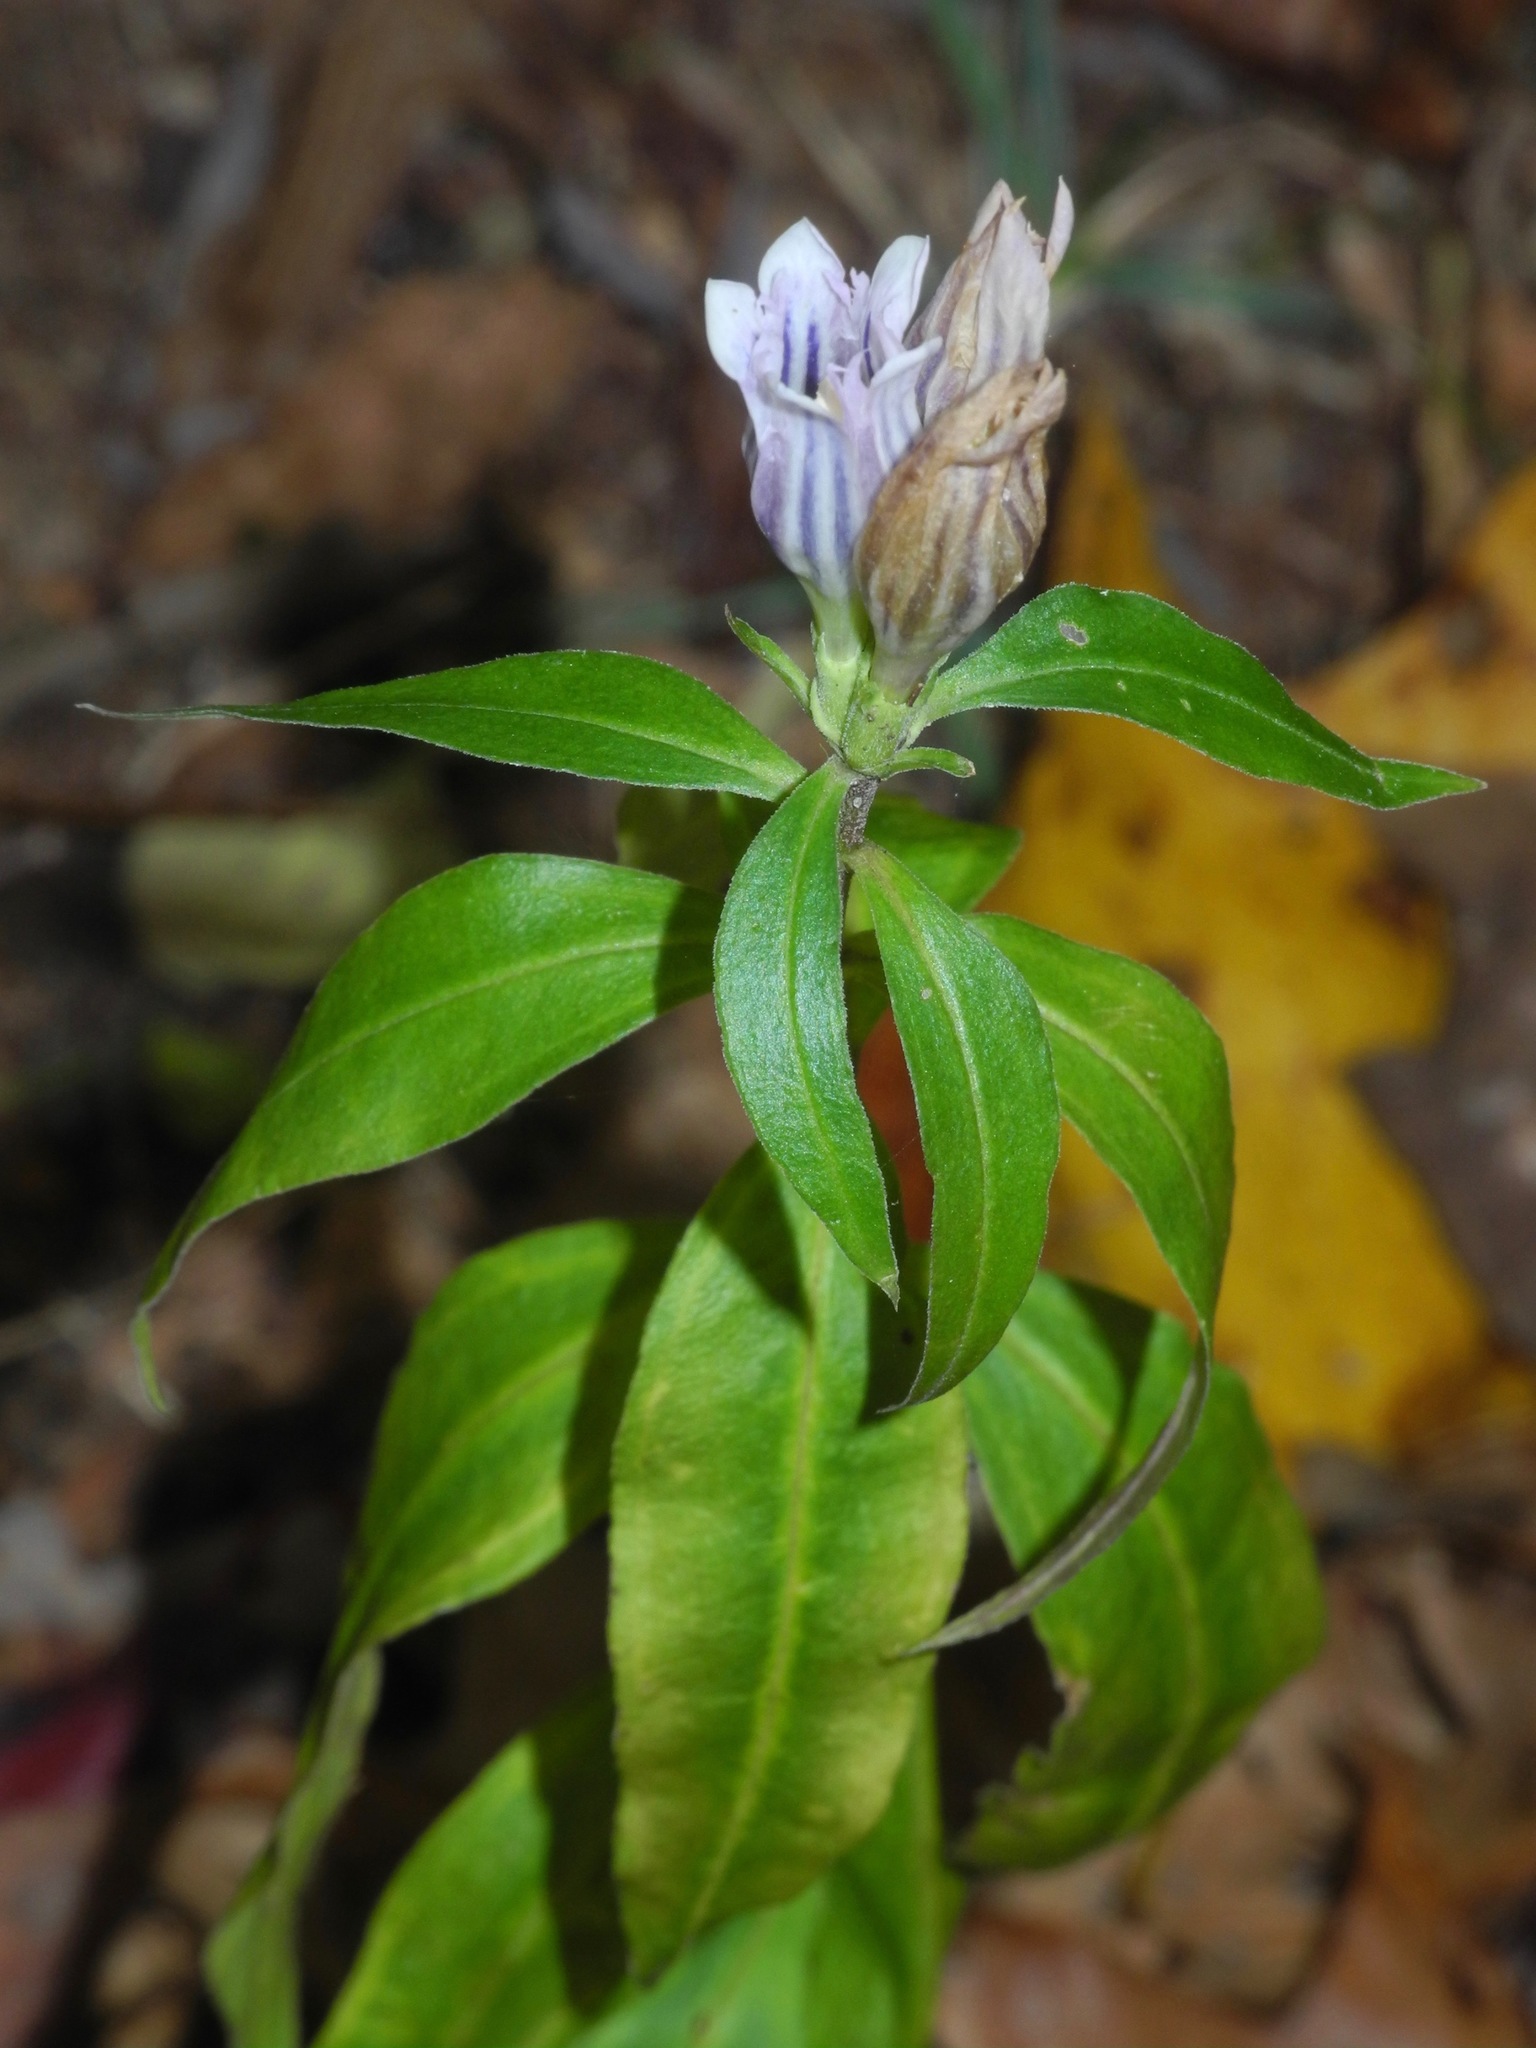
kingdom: Plantae
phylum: Tracheophyta
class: Magnoliopsida
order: Gentianales
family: Gentianaceae
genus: Gentiana
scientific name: Gentiana villosa
